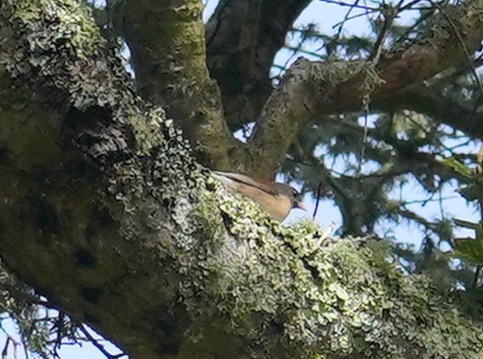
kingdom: Animalia
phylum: Chordata
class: Aves
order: Passeriformes
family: Passerellidae
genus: Junco
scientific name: Junco hyemalis
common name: Dark-eyed junco
